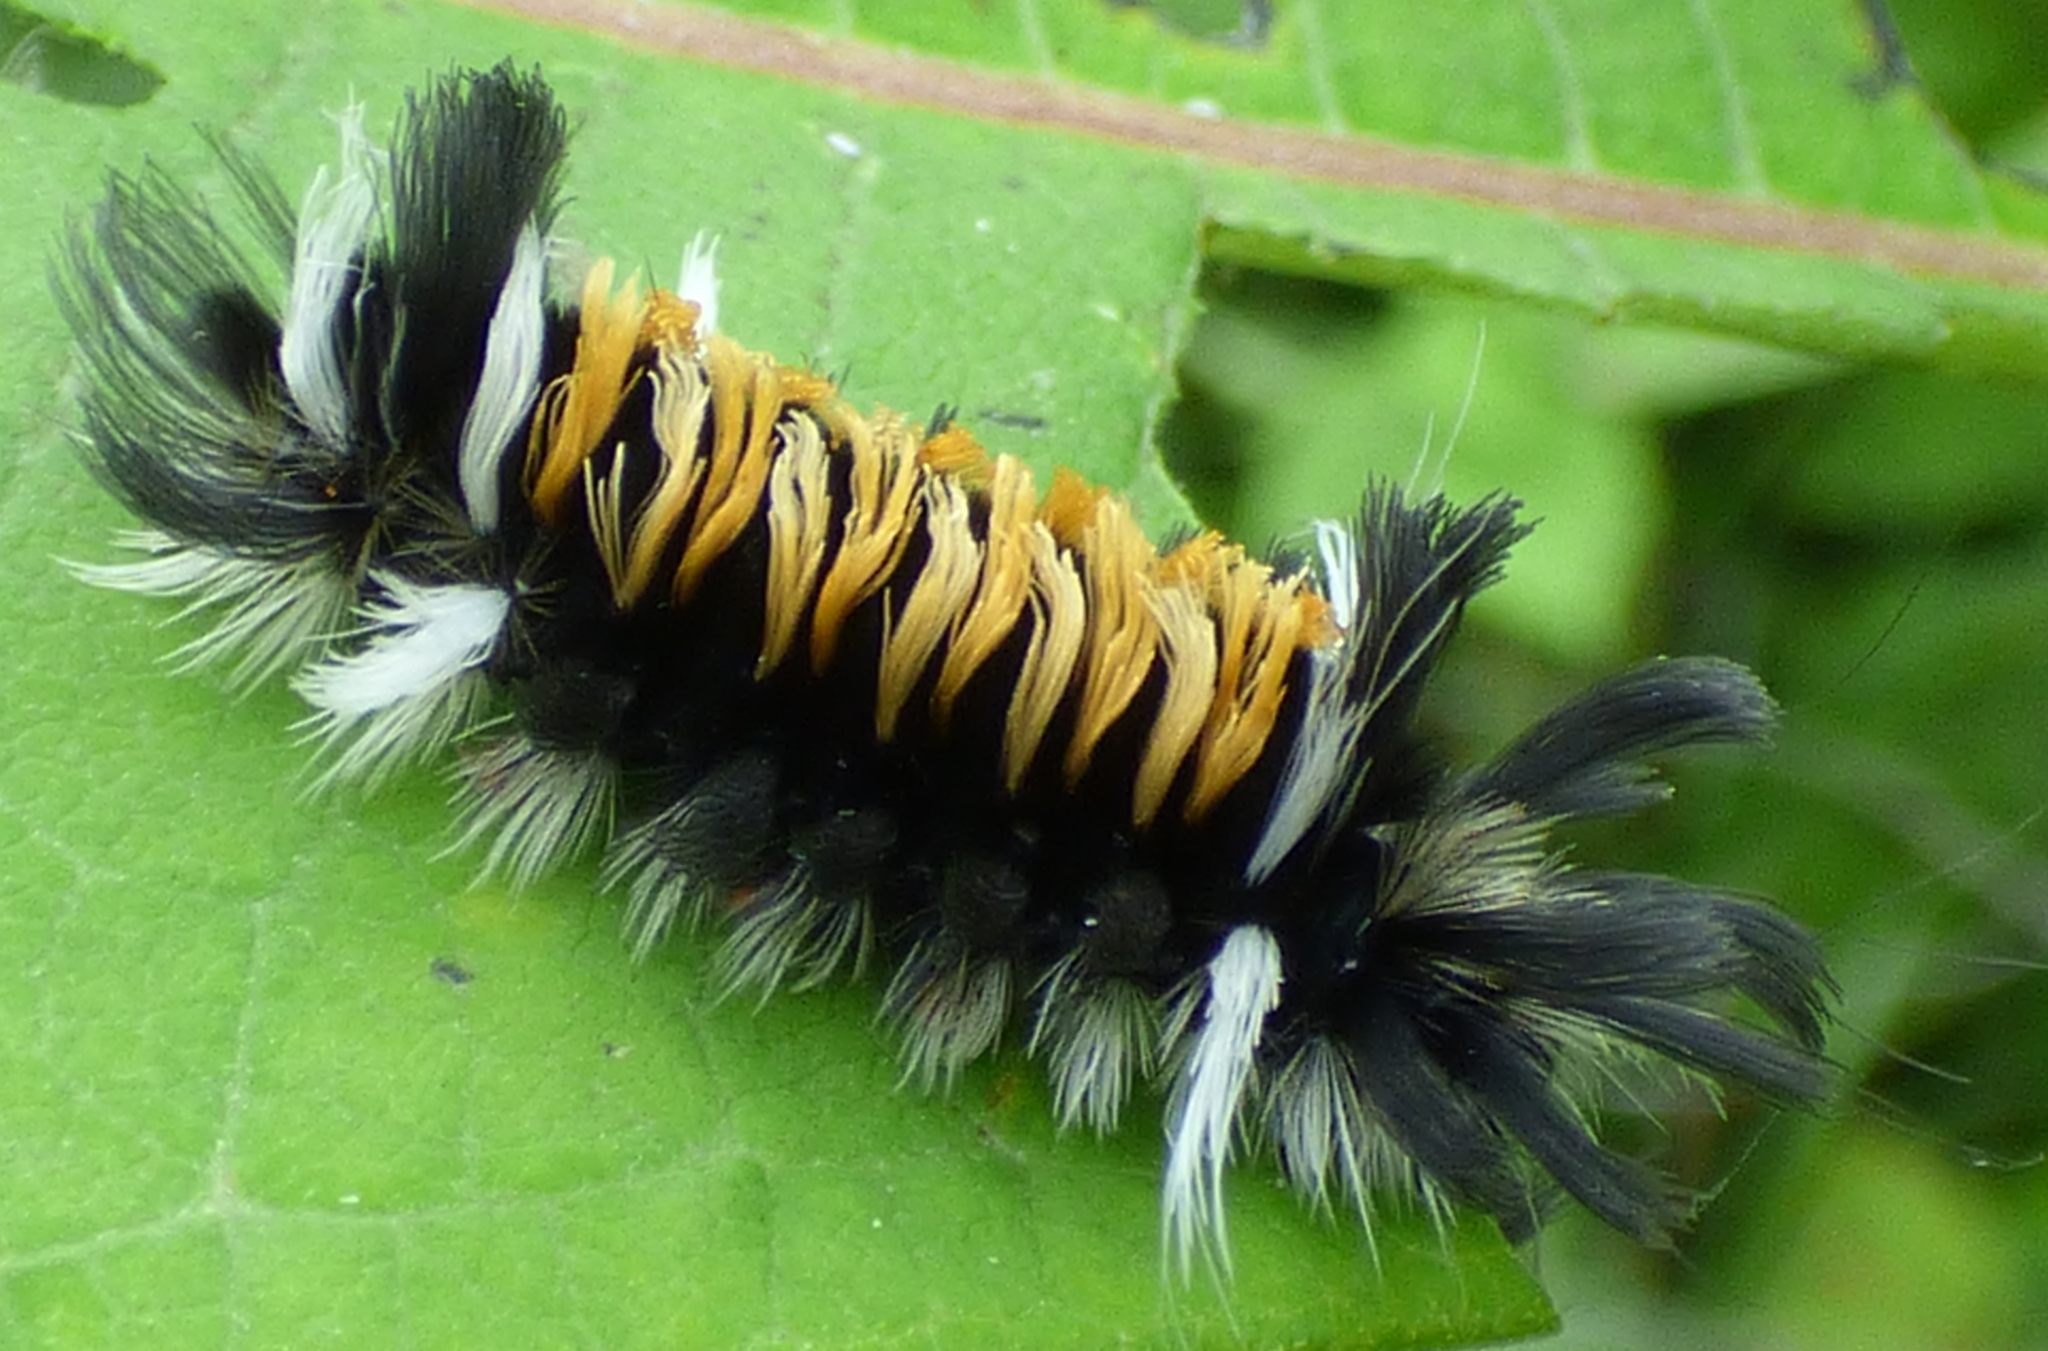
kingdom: Animalia
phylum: Arthropoda
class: Insecta
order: Lepidoptera
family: Erebidae
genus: Euchaetes
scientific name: Euchaetes egle
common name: Milkweed tussock moth
